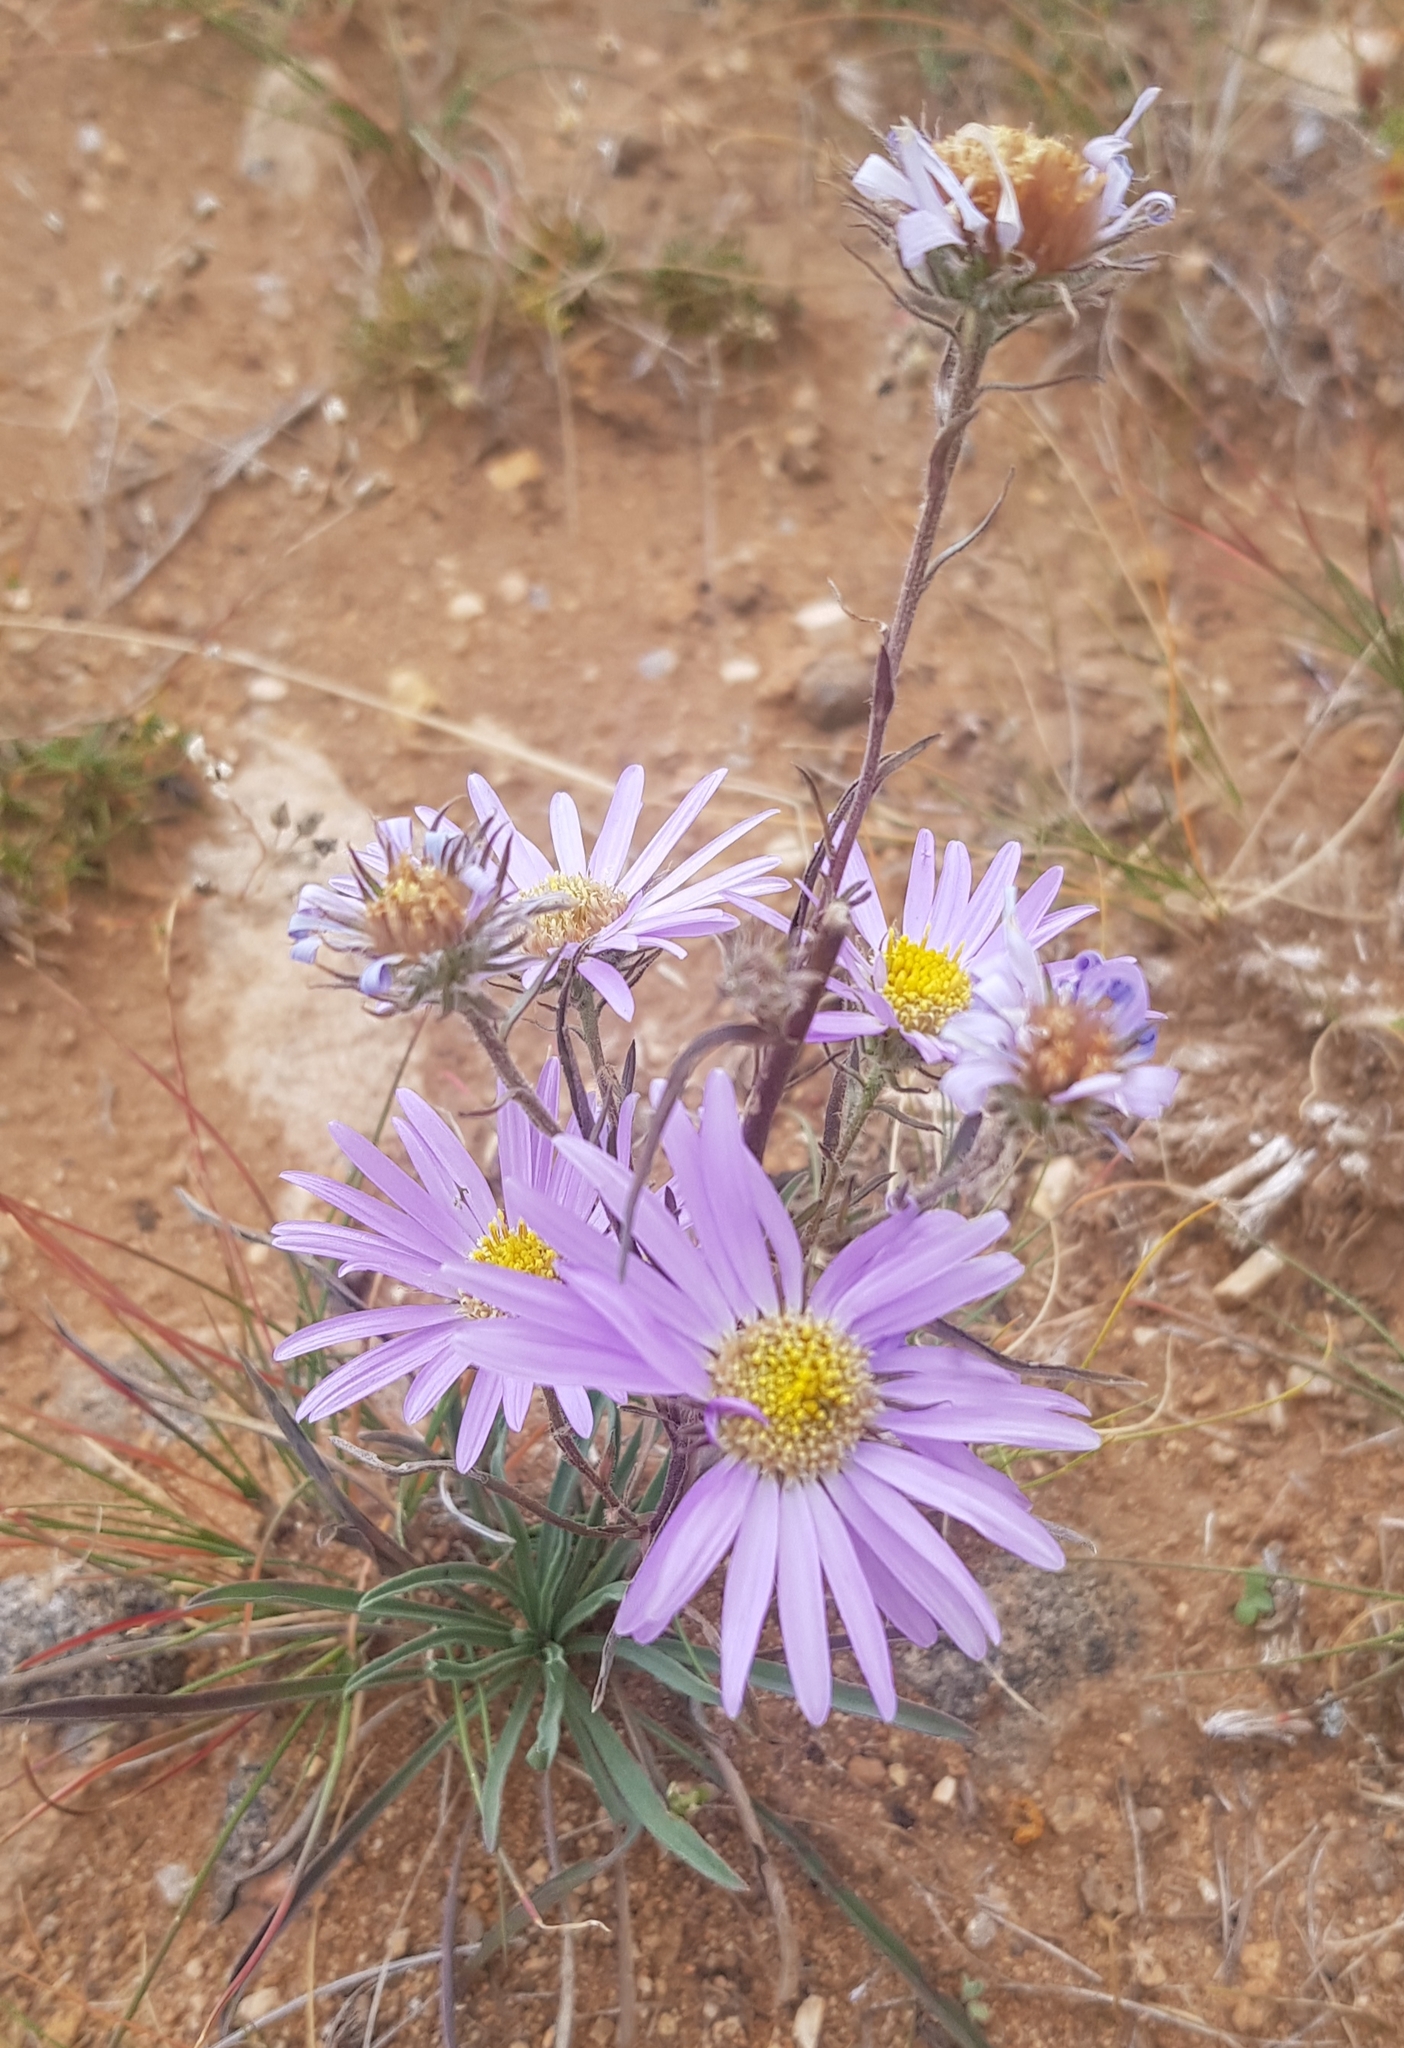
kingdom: Plantae
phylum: Tracheophyta
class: Magnoliopsida
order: Asterales
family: Asteraceae
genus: Heteropappus
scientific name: Heteropappus altaicus
